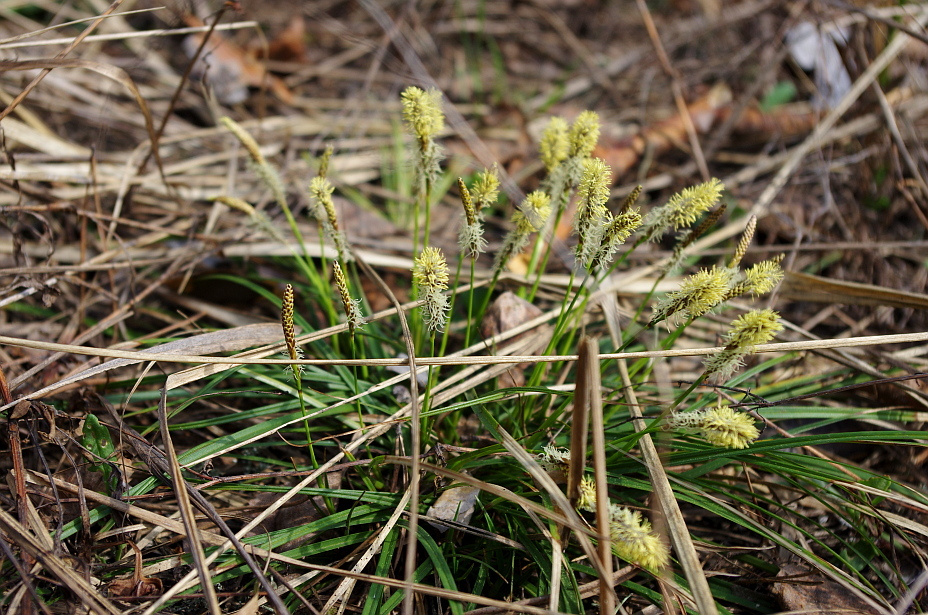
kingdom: Plantae
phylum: Tracheophyta
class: Liliopsida
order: Poales
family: Cyperaceae
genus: Carex
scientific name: Carex ericetorum
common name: Rare spring-sedge
